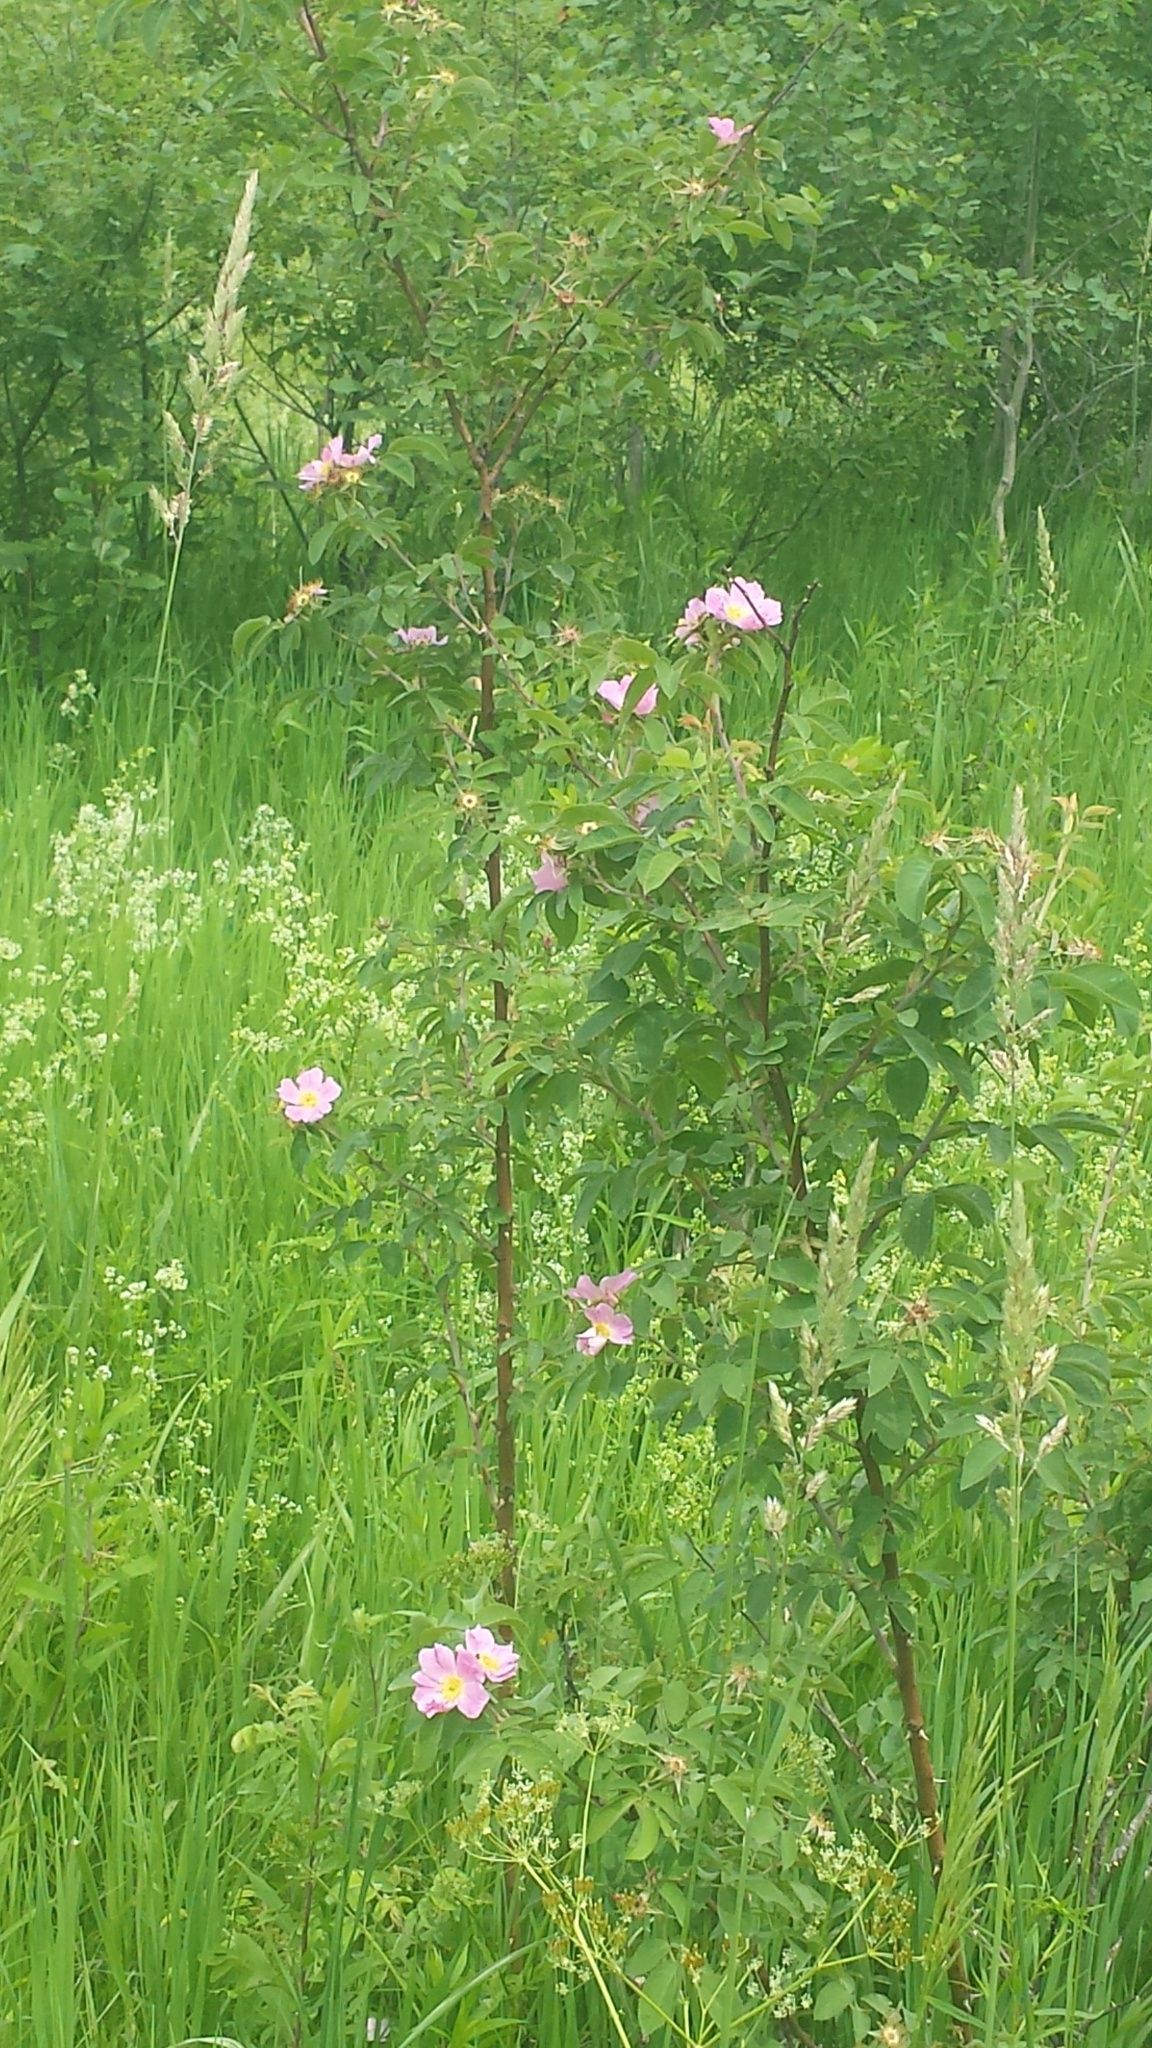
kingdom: Plantae
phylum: Tracheophyta
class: Magnoliopsida
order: Rosales
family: Rosaceae
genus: Rosa
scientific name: Rosa sherardii
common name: Sherard's downy rose
